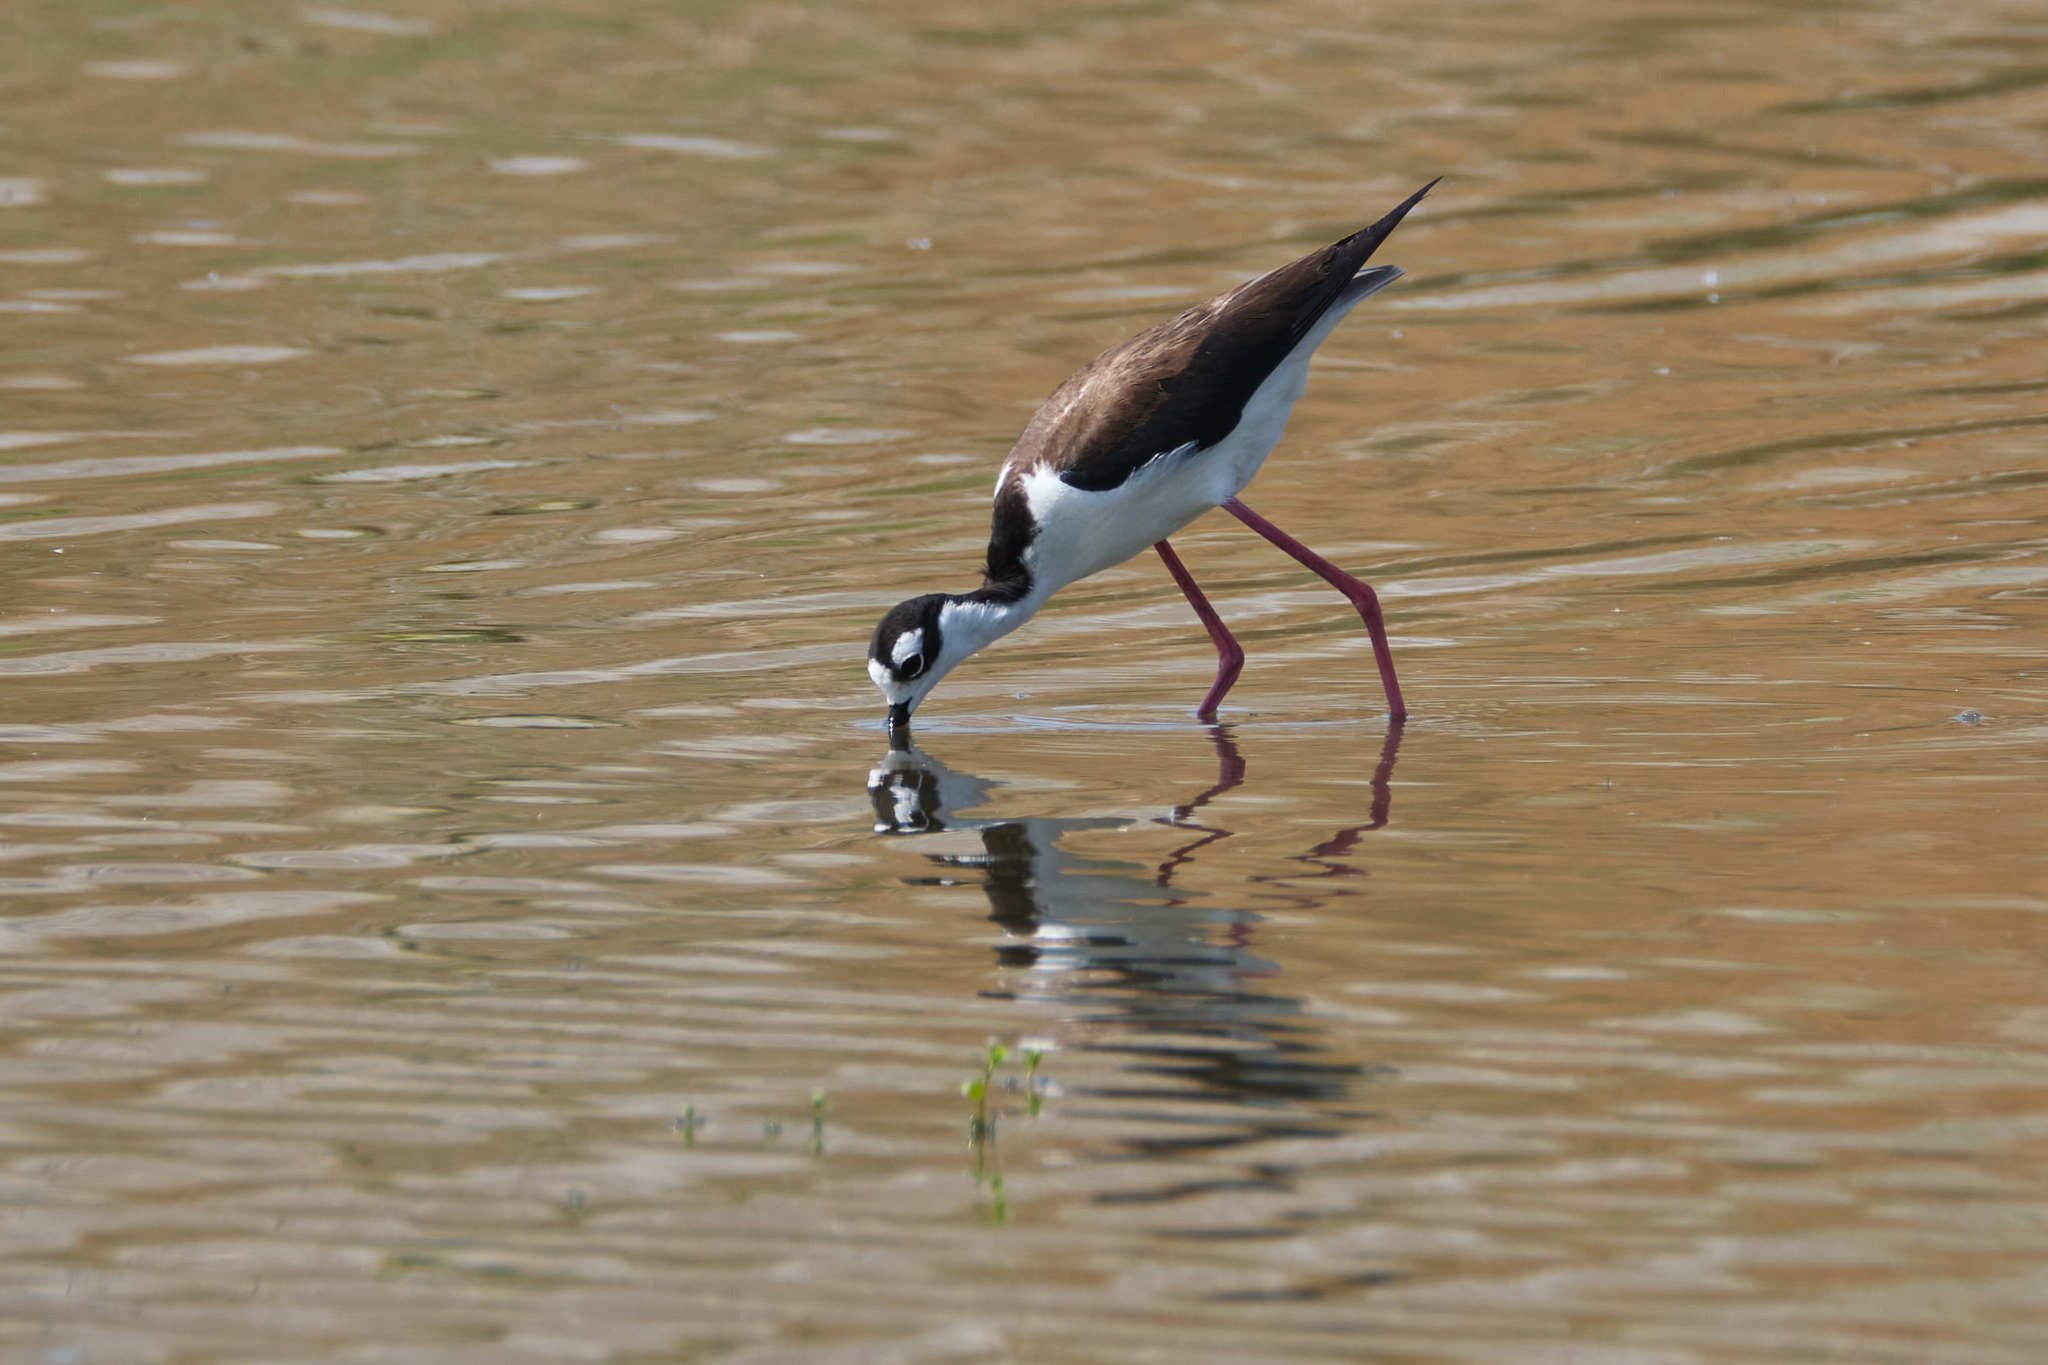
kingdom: Animalia
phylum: Chordata
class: Aves
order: Charadriiformes
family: Recurvirostridae
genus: Himantopus
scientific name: Himantopus mexicanus
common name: Black-necked stilt
